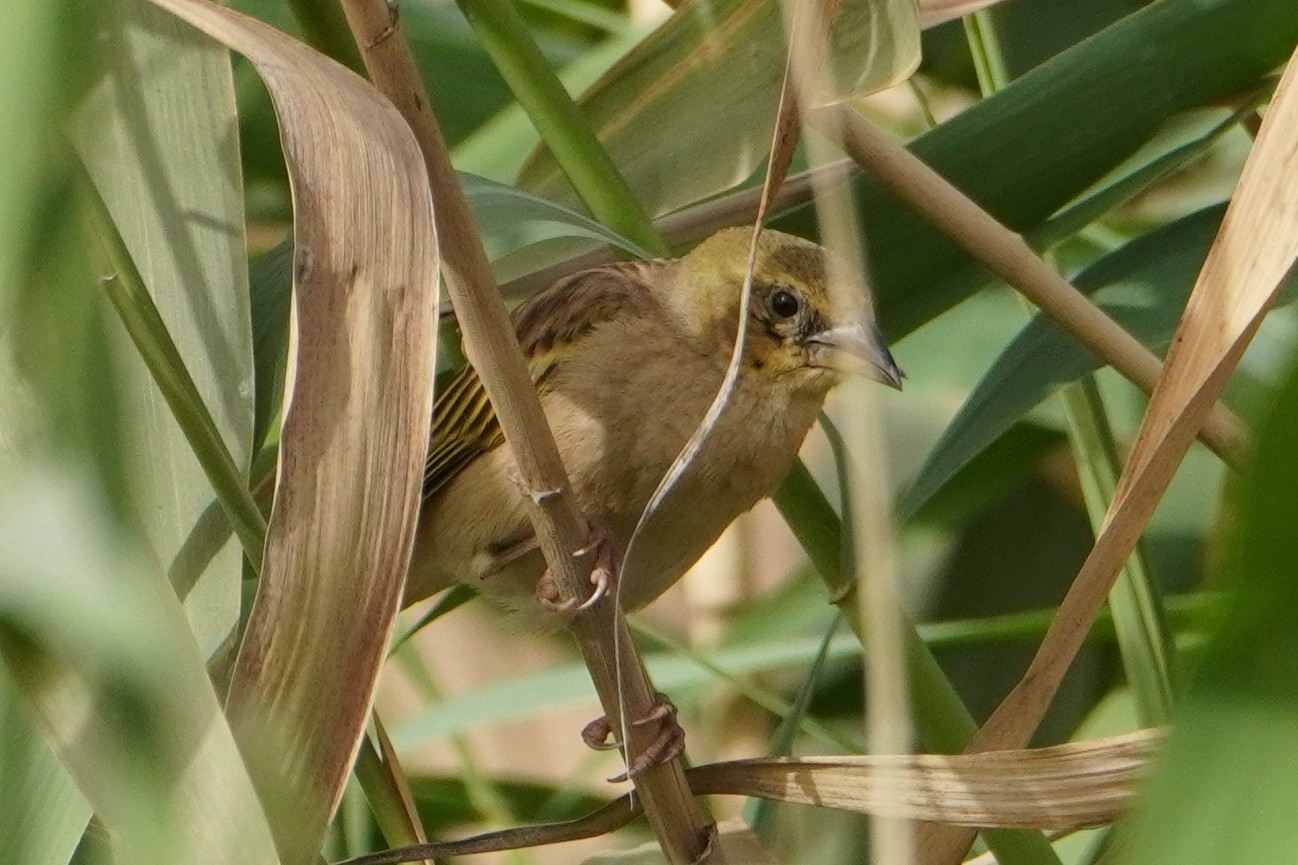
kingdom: Animalia
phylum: Chordata
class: Aves
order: Passeriformes
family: Ploceidae
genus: Ploceus
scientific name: Ploceus melanocephalus
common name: Black-headed weaver
